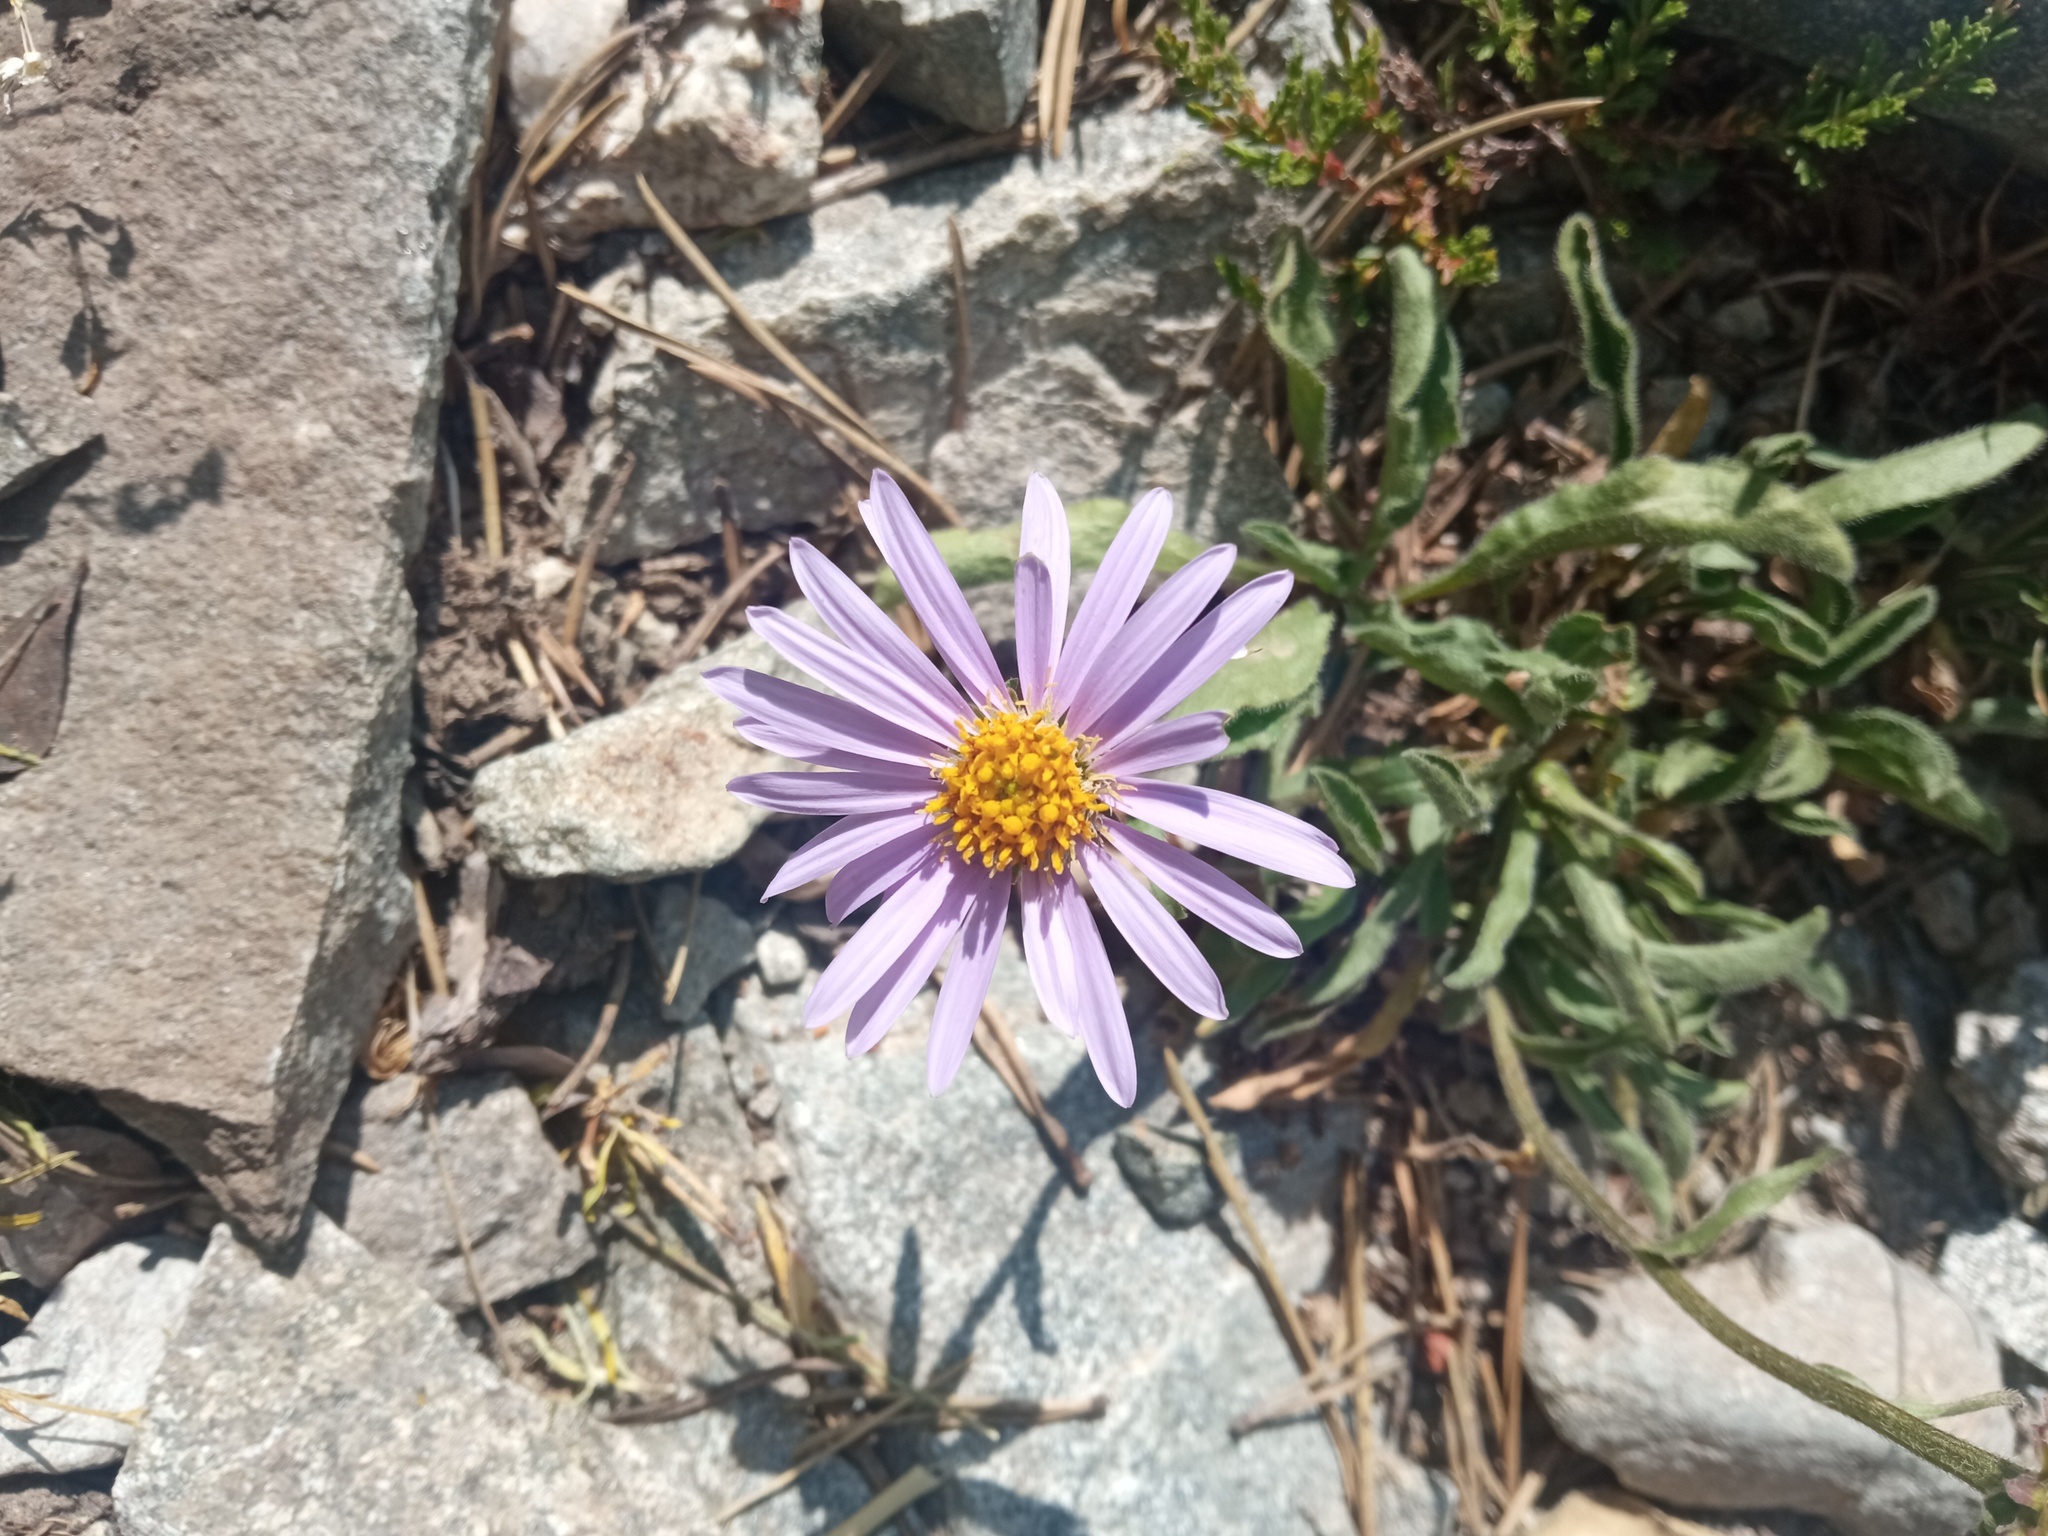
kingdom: Plantae
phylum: Tracheophyta
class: Magnoliopsida
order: Asterales
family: Asteraceae
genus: Aster
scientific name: Aster alpinus
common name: Alpine aster
